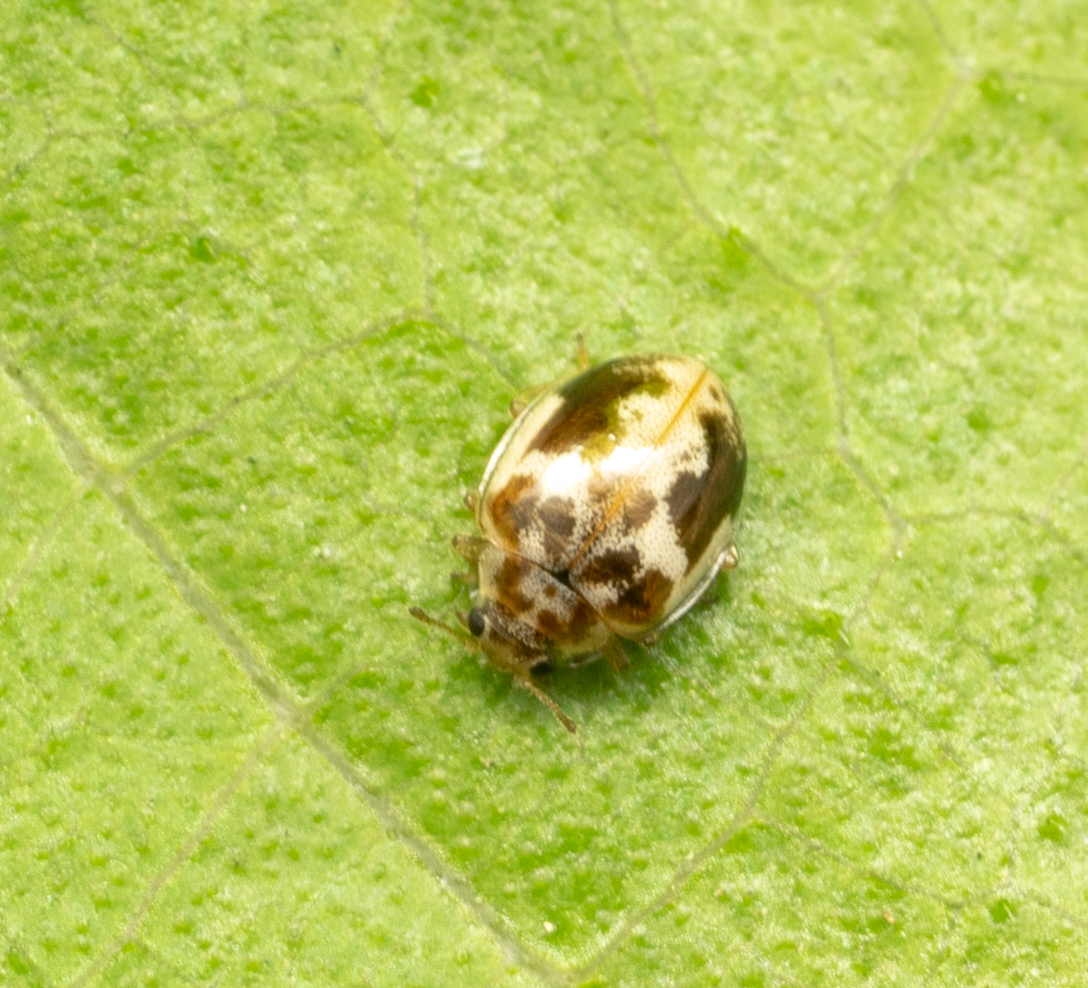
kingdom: Animalia
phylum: Arthropoda
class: Insecta
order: Coleoptera
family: Coccinellidae
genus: Psyllobora
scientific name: Psyllobora renifer
